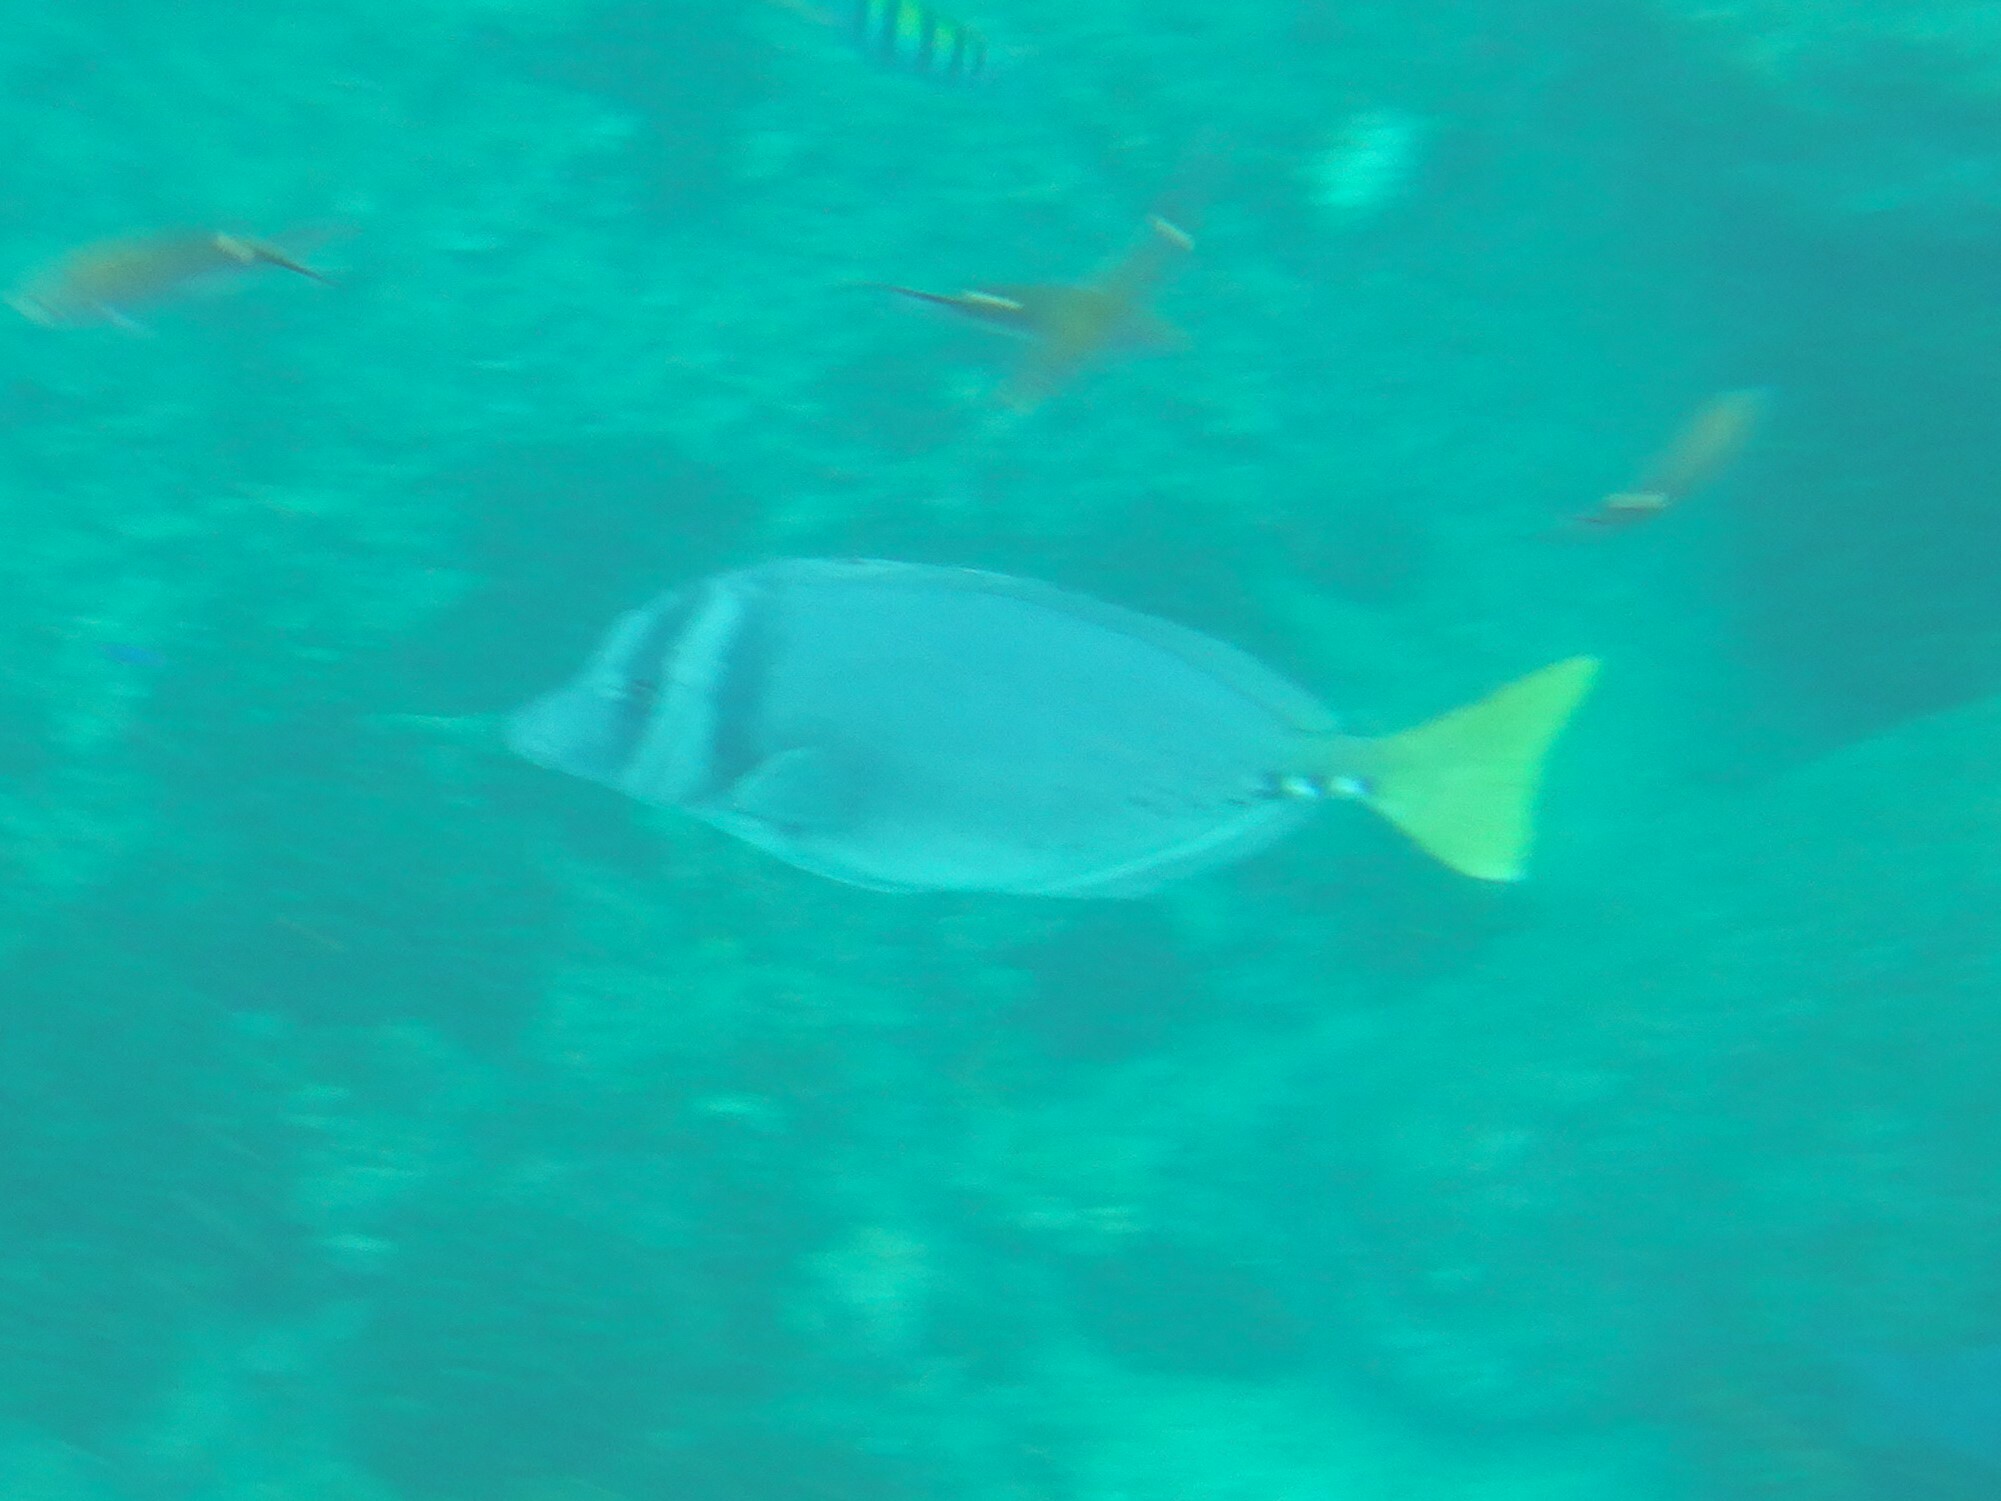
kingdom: Animalia
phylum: Chordata
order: Perciformes
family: Acanthuridae
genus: Prionurus
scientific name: Prionurus laticlavius
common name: Razor surgeonfish
